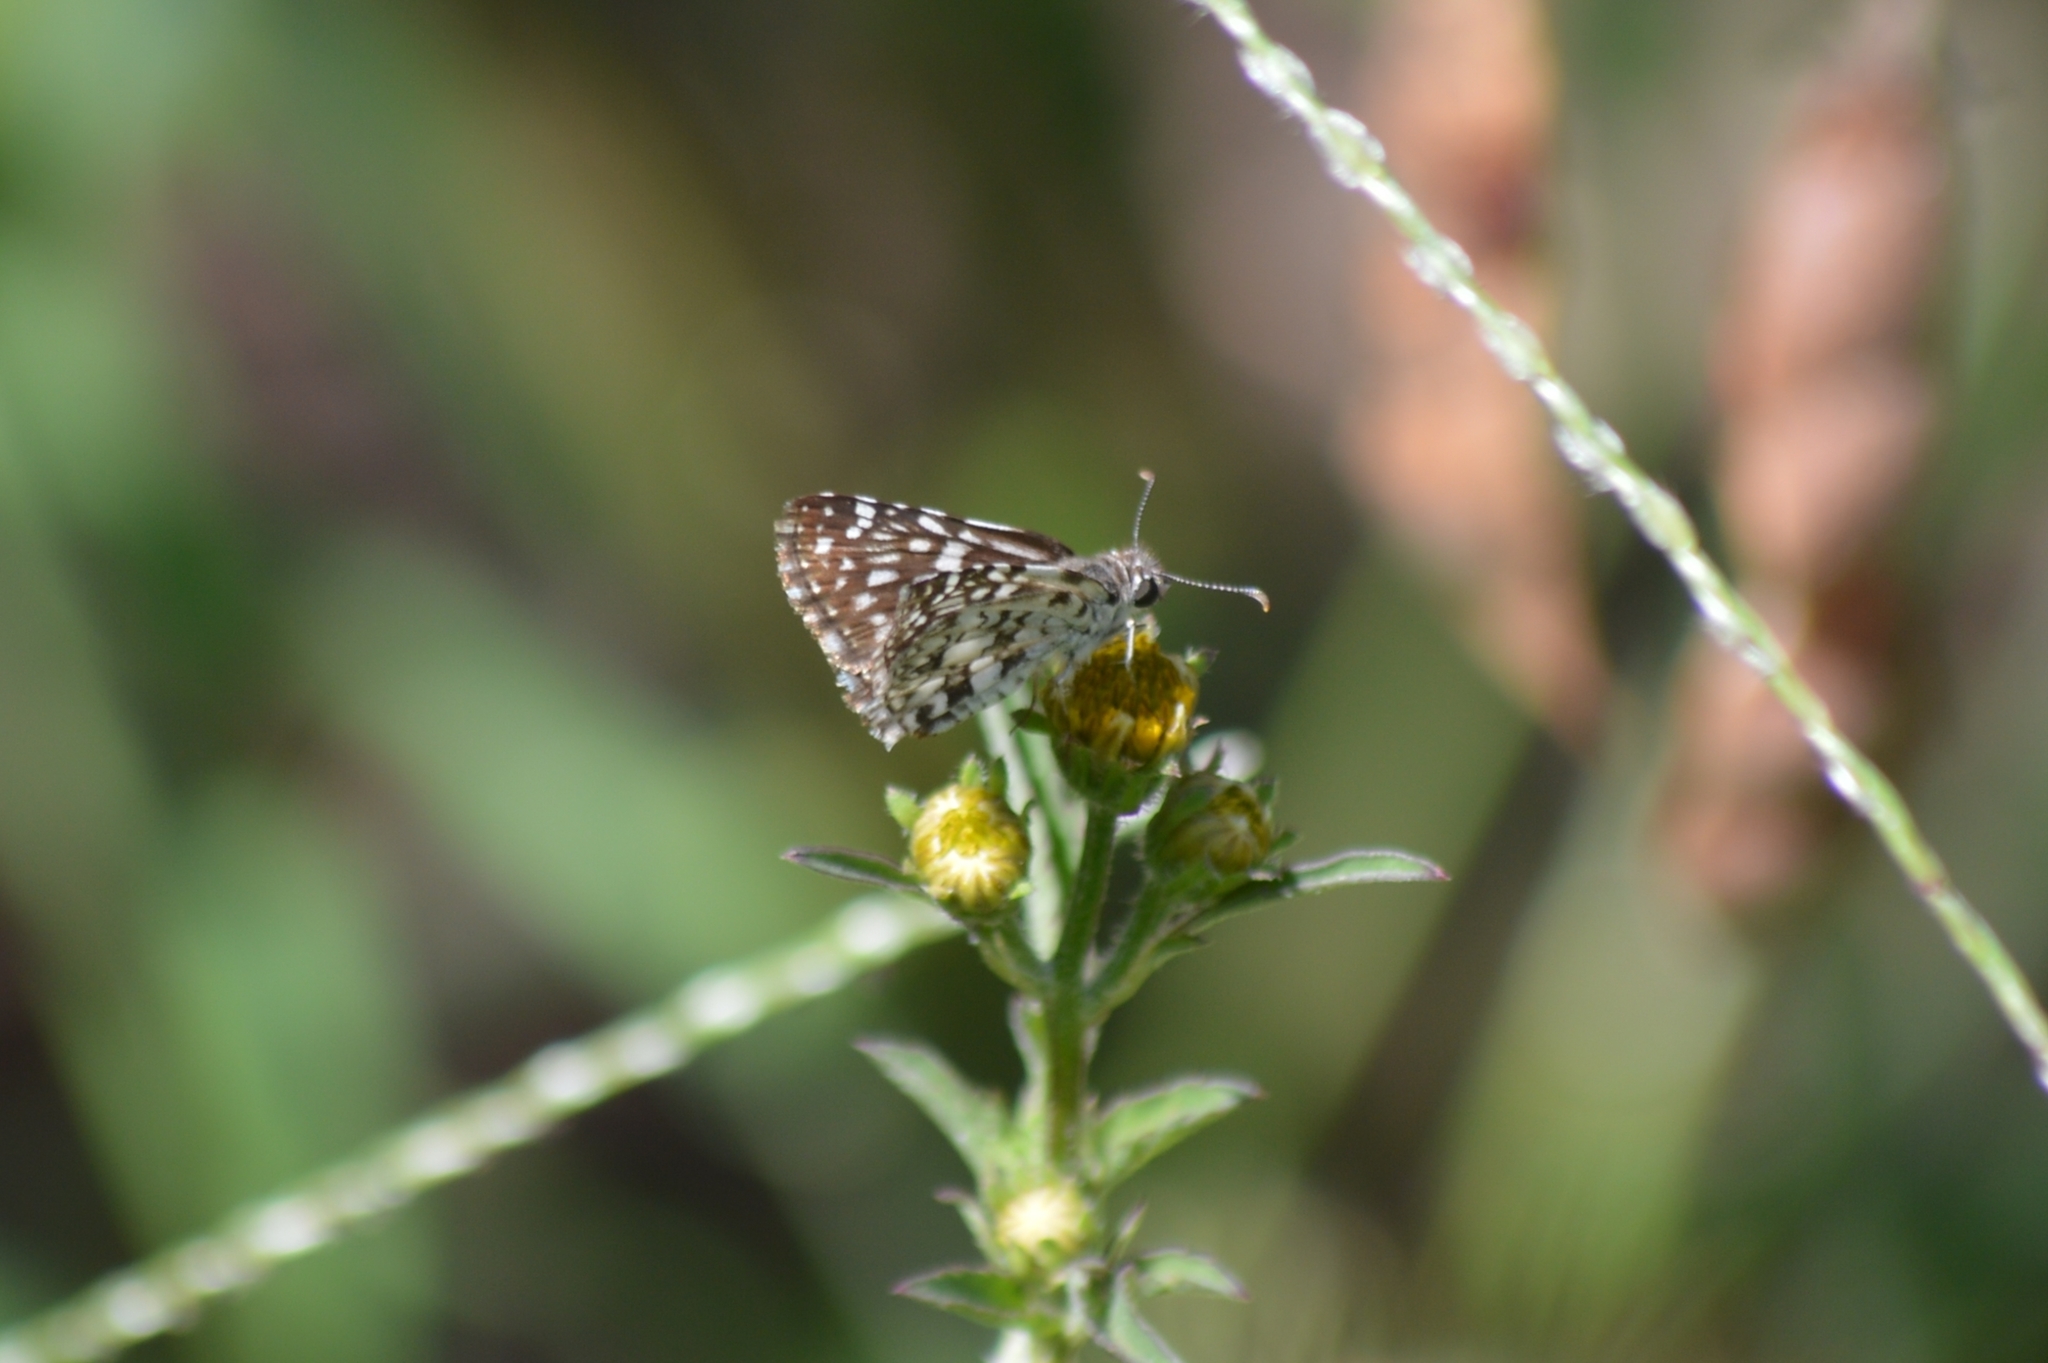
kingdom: Animalia
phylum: Arthropoda
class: Insecta
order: Lepidoptera
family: Hesperiidae
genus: Pyrgus
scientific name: Pyrgus oileus
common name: Tropical checkered-skipper
